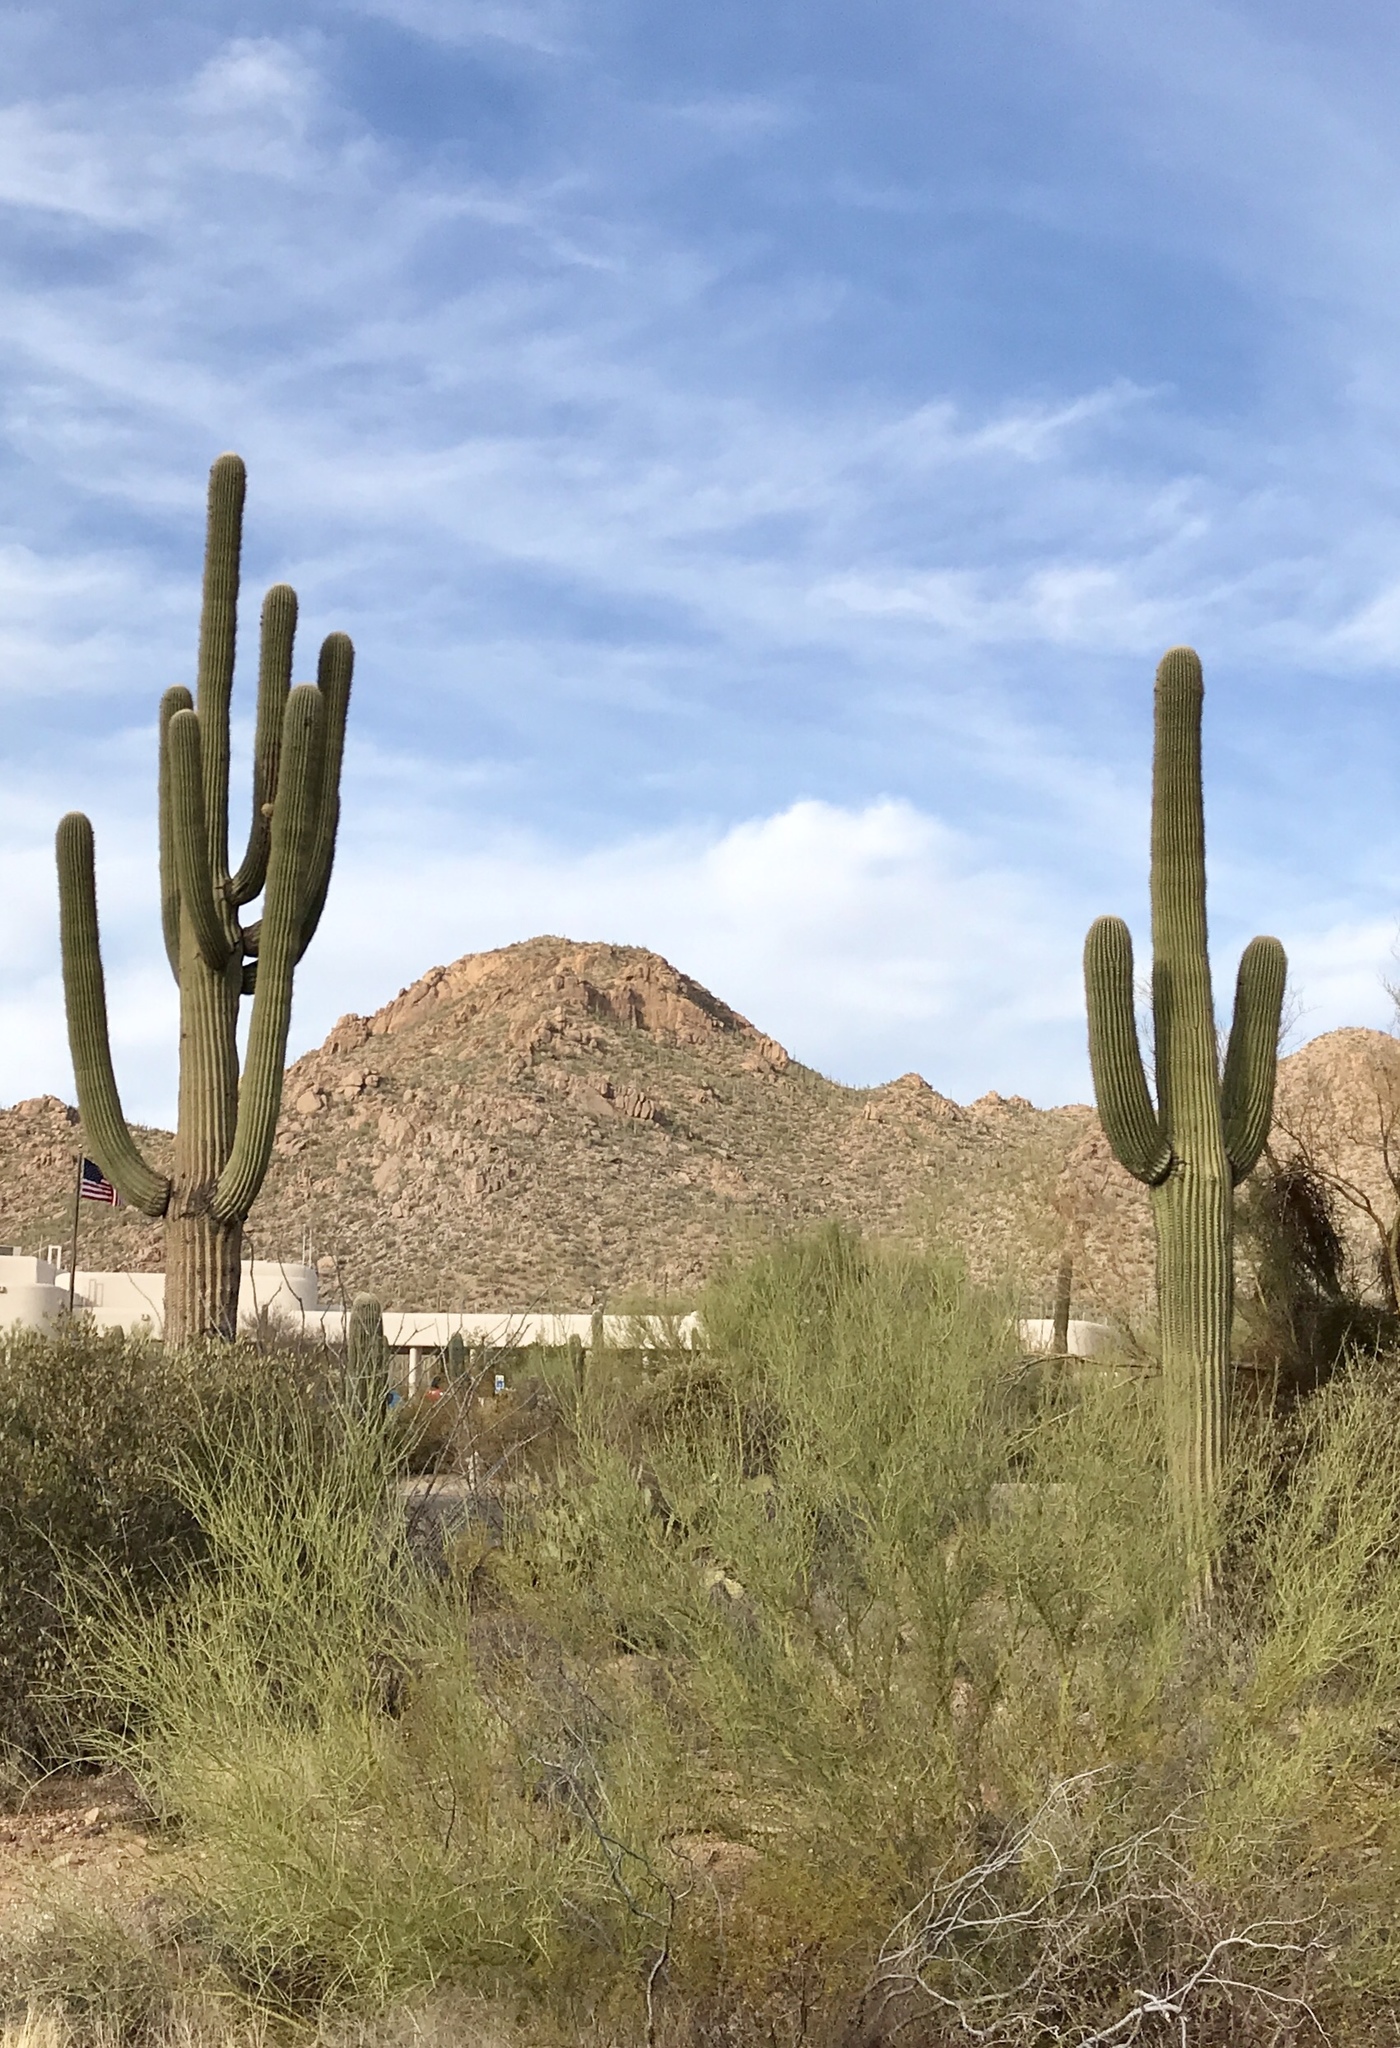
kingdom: Plantae
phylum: Tracheophyta
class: Magnoliopsida
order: Caryophyllales
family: Cactaceae
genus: Carnegiea
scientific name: Carnegiea gigantea
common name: Saguaro
